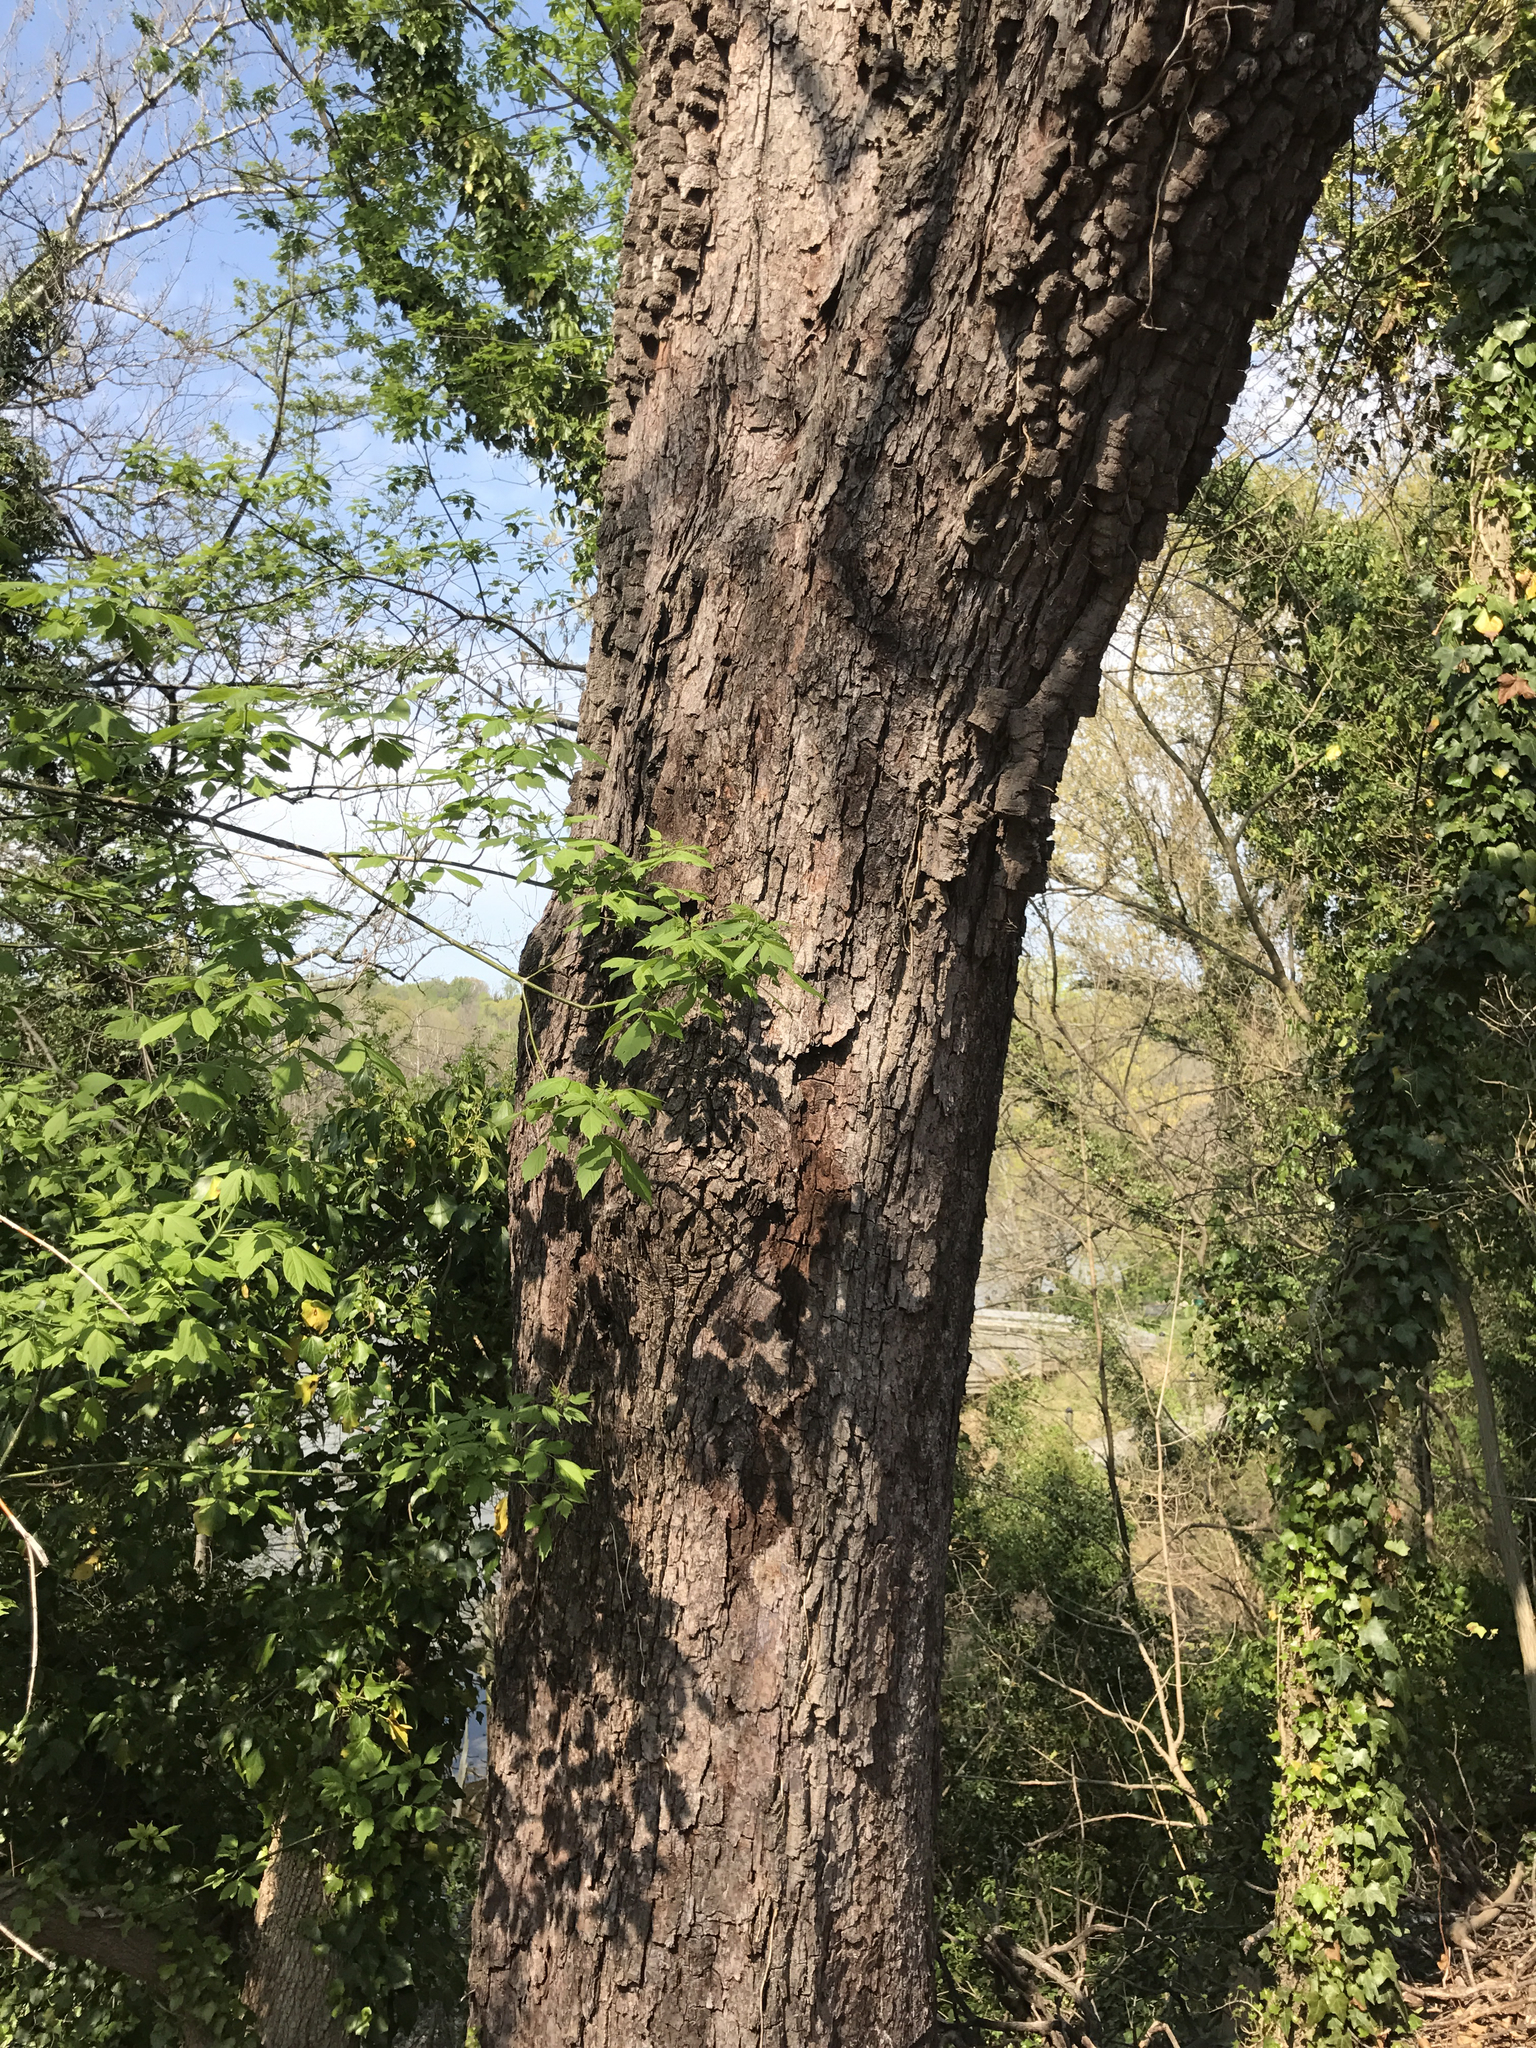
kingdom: Plantae
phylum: Tracheophyta
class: Magnoliopsida
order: Ericales
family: Ebenaceae
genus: Diospyros
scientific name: Diospyros virginiana
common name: Persimmon
